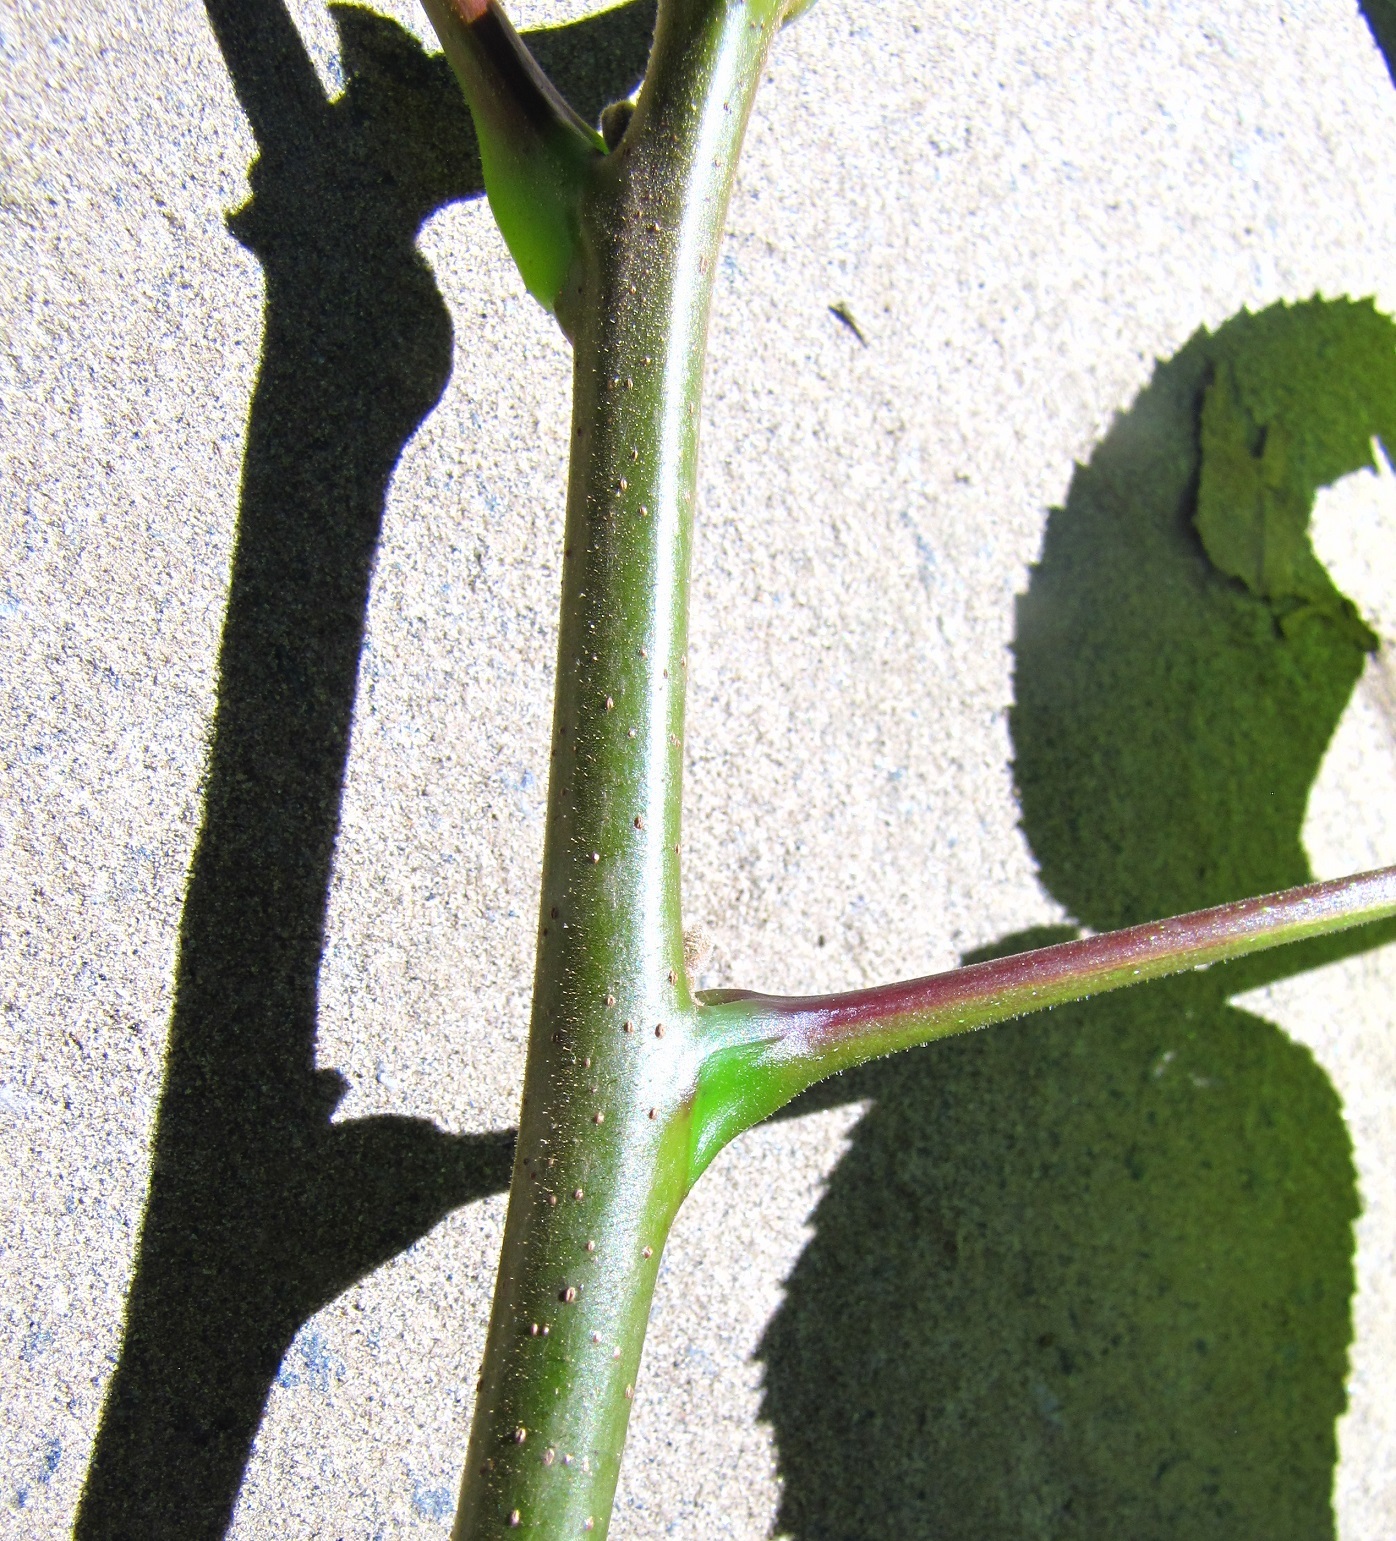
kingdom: Plantae
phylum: Tracheophyta
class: Magnoliopsida
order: Fagales
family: Juglandaceae
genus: Juglans
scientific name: Juglans nigra
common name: Black walnut
